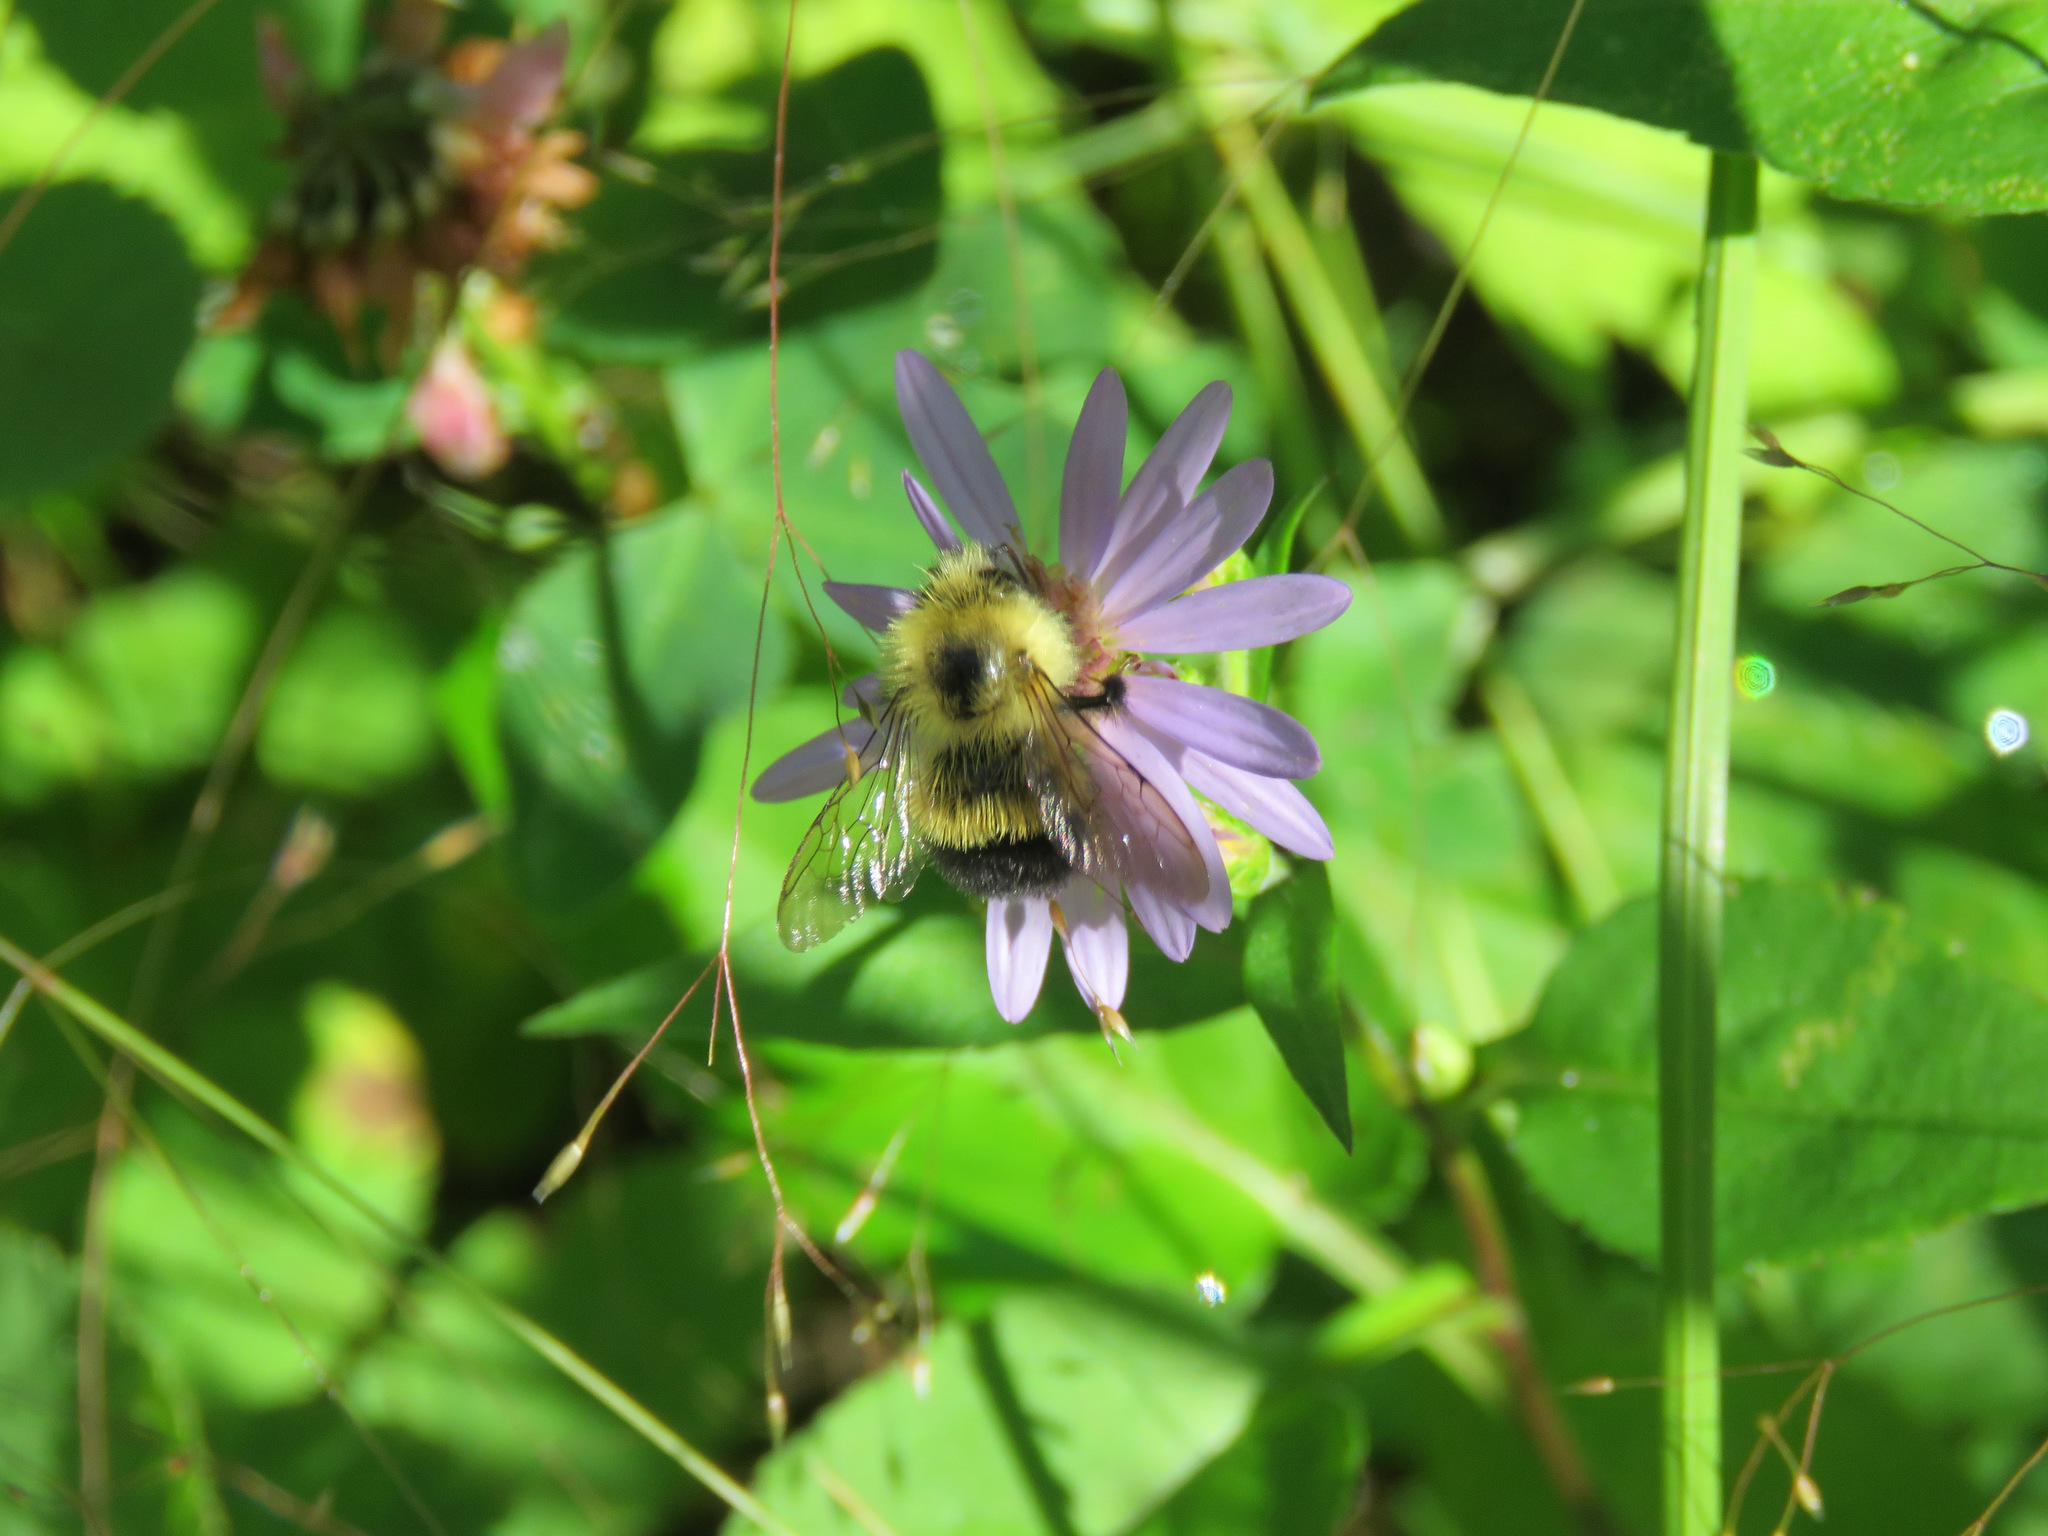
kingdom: Animalia
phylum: Arthropoda
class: Insecta
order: Hymenoptera
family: Apidae
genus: Bombus
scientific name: Bombus vagans
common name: Half-black bumble bee
